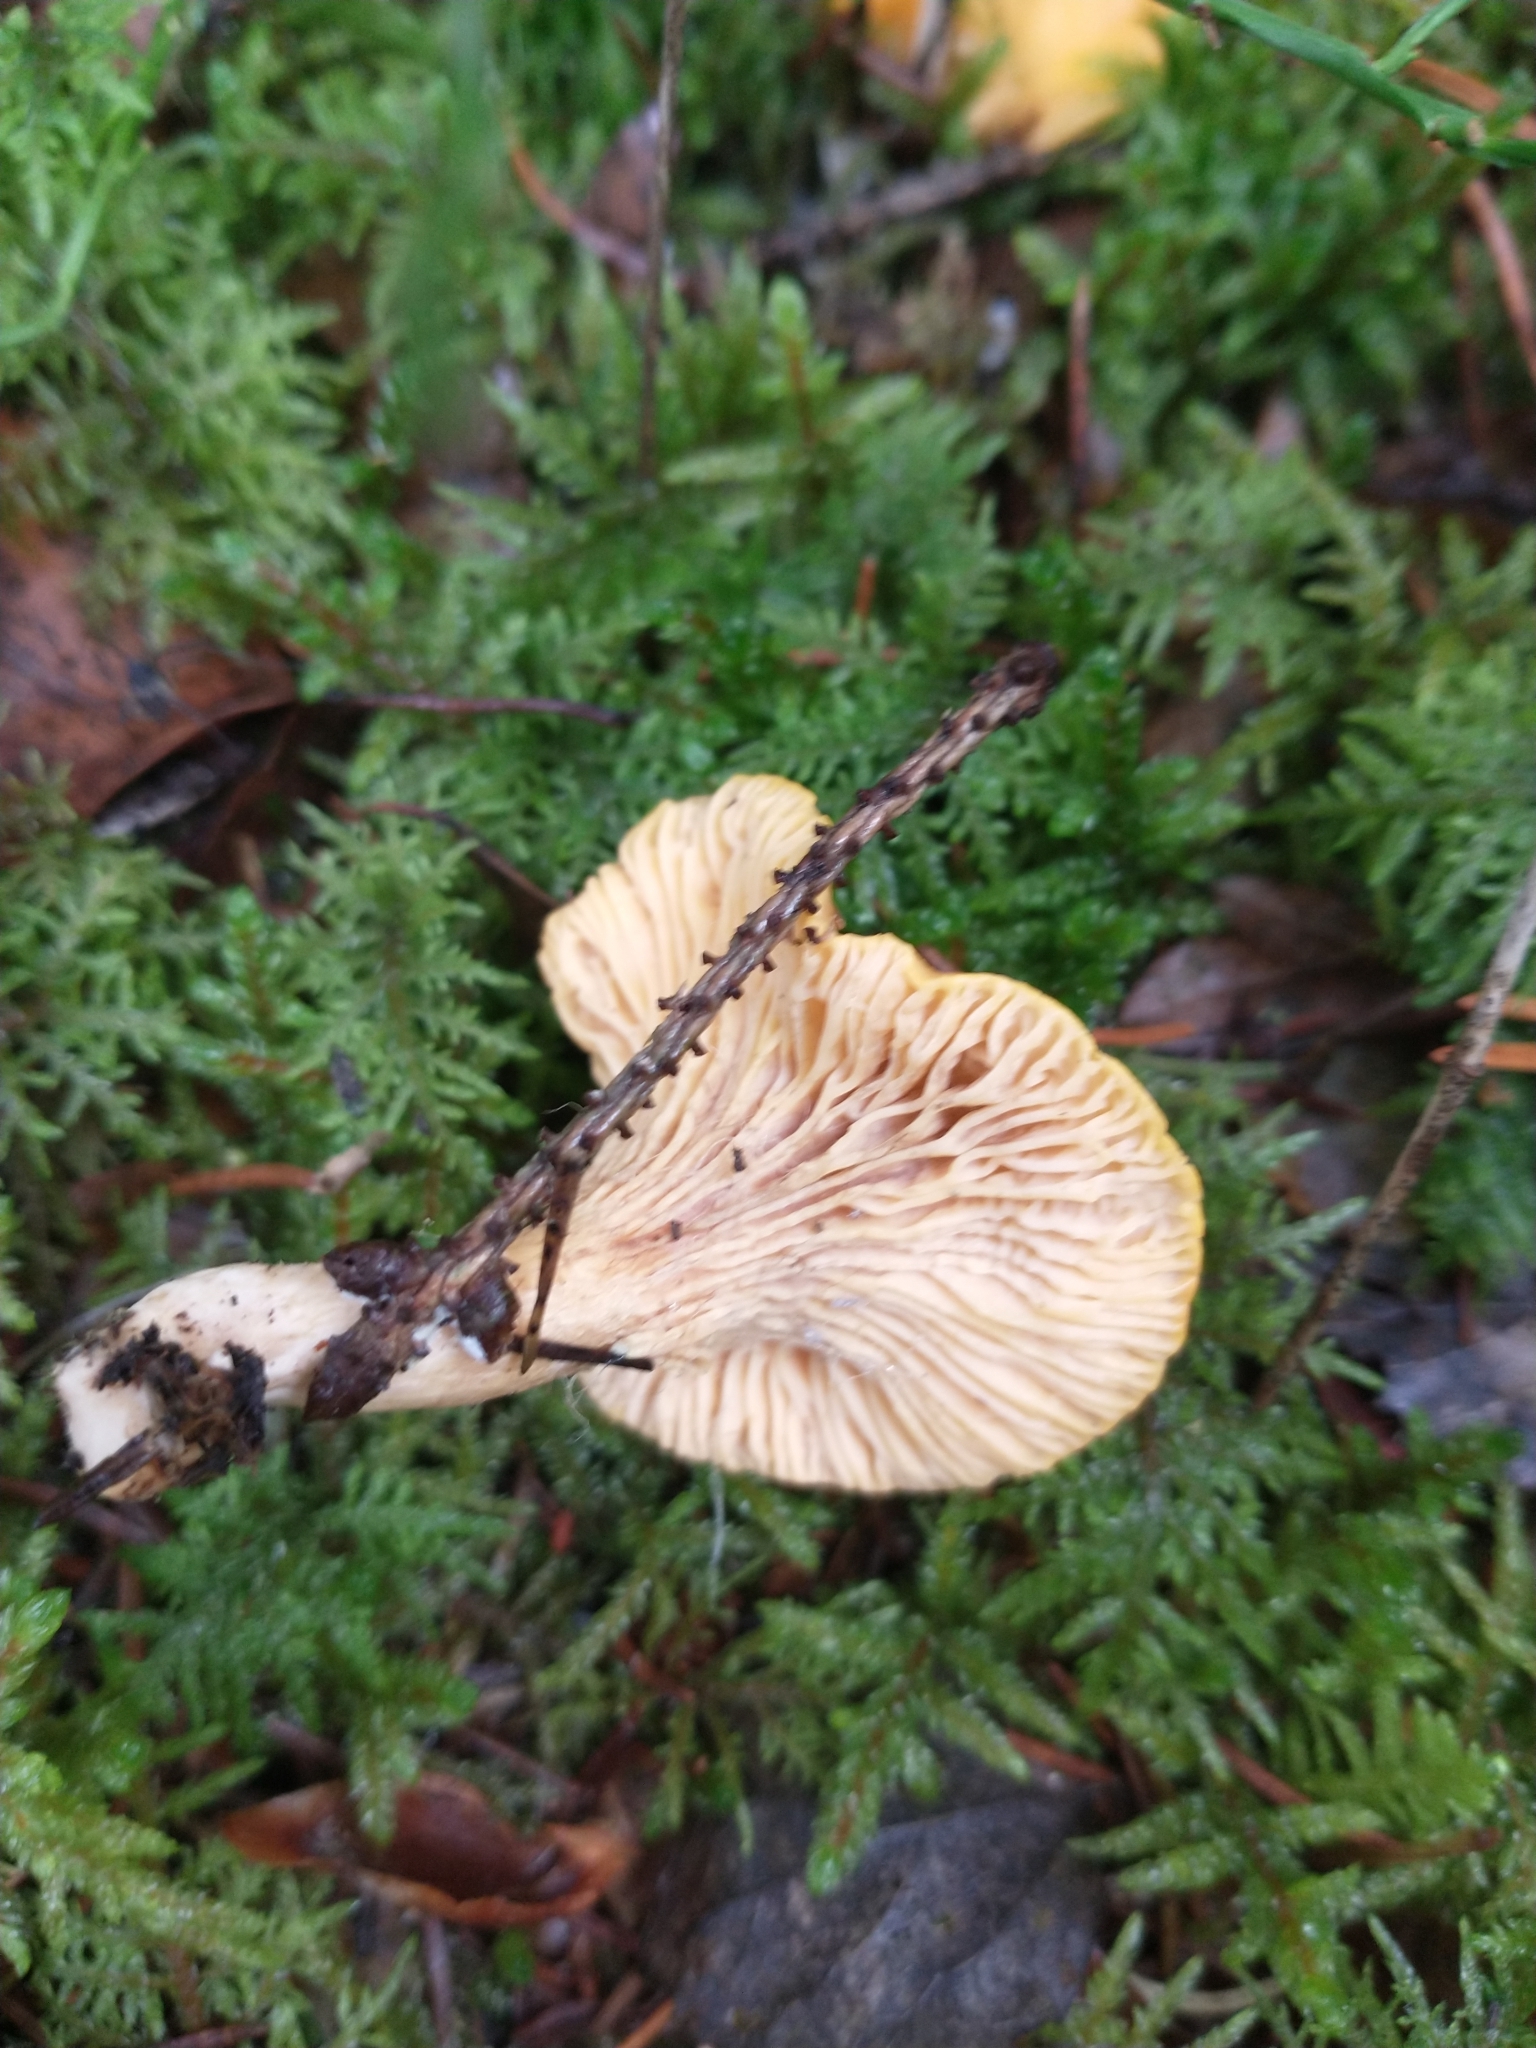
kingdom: Fungi
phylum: Basidiomycota
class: Agaricomycetes
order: Cantharellales
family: Hydnaceae
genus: Cantharellus
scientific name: Cantharellus cibarius
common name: Chanterelle
